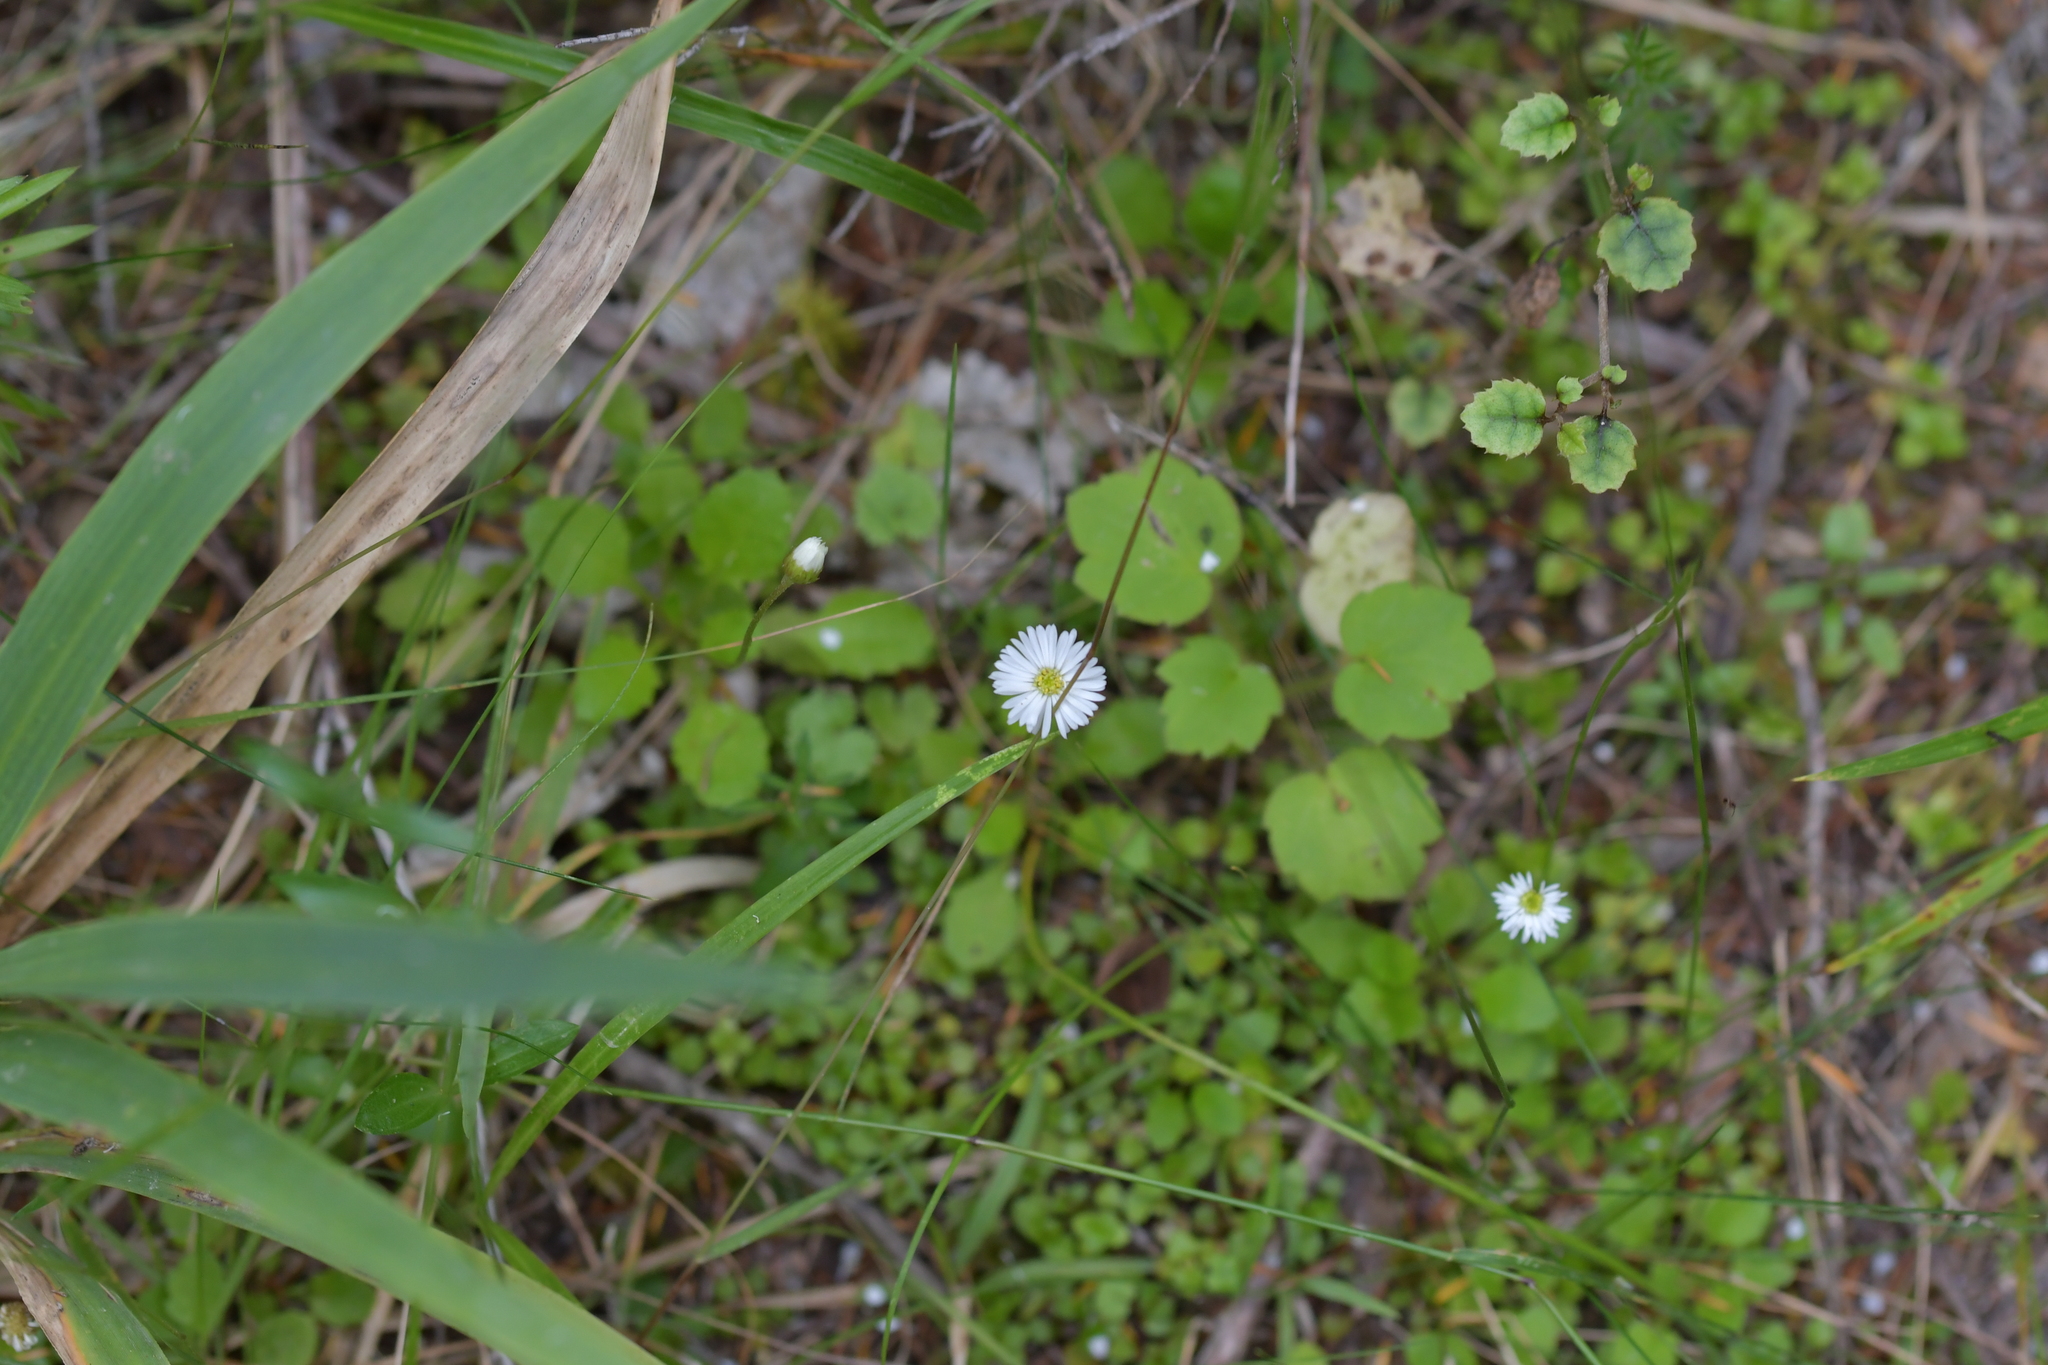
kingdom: Plantae
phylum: Tracheophyta
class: Magnoliopsida
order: Asterales
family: Asteraceae
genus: Lagenophora
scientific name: Lagenophora strangulata
